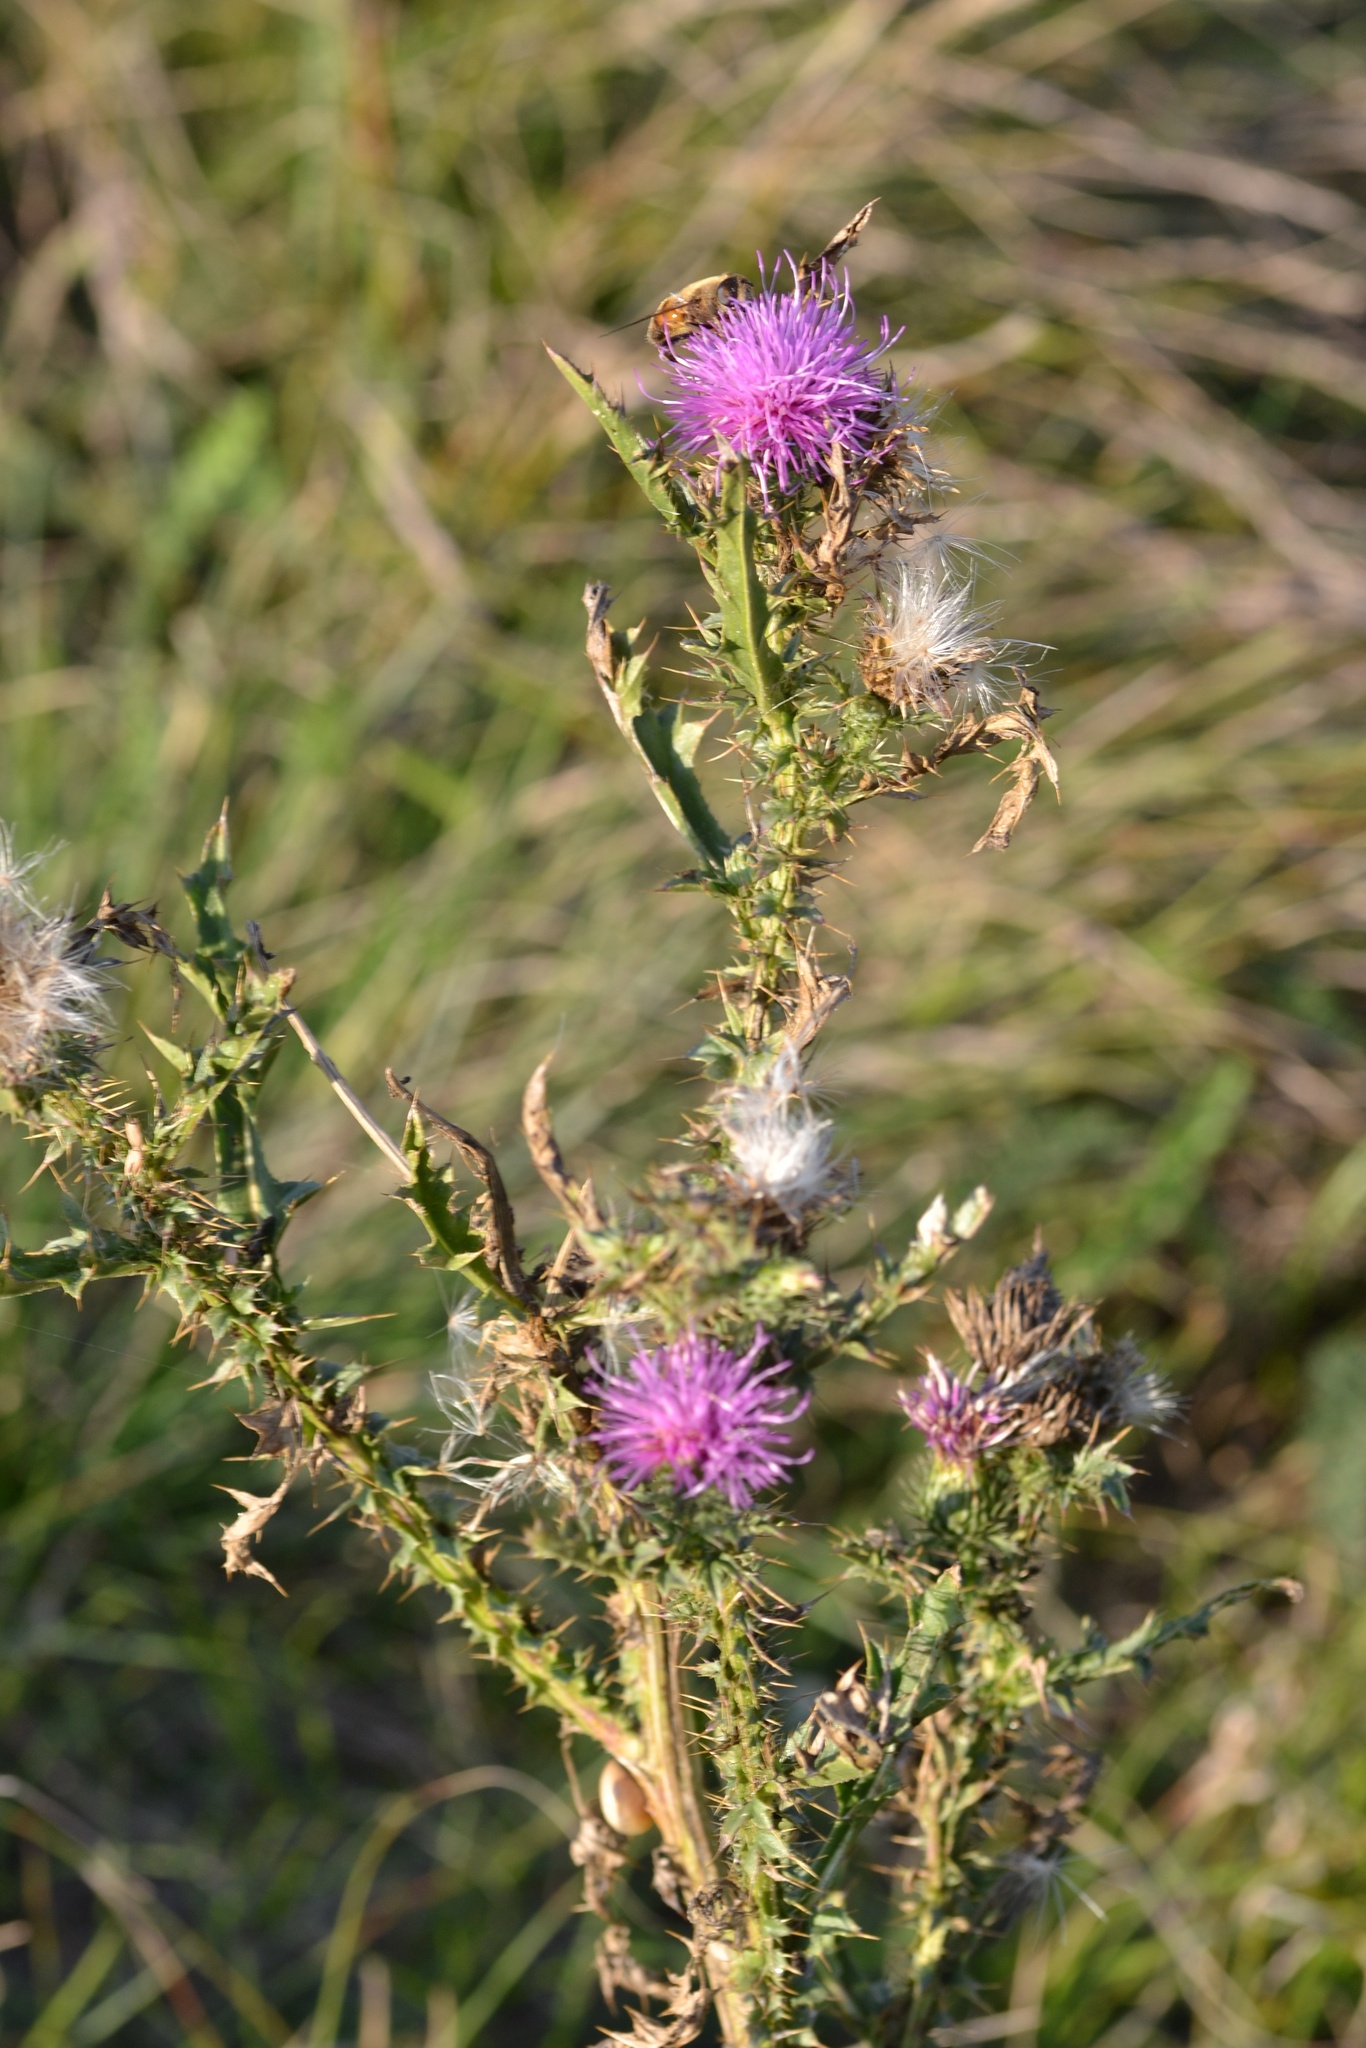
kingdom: Plantae
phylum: Tracheophyta
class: Magnoliopsida
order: Asterales
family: Asteraceae
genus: Carduus
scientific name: Carduus acanthoides
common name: Plumeless thistle
